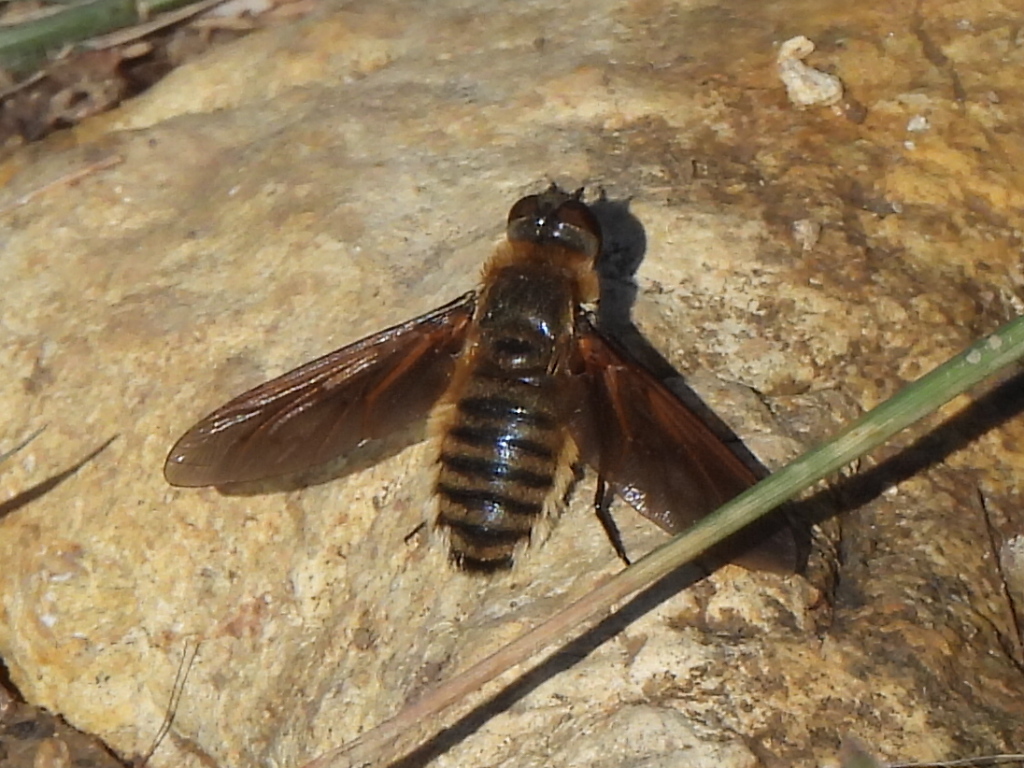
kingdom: Animalia
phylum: Arthropoda
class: Insecta
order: Diptera
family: Bombyliidae
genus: Poecilanthrax
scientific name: Poecilanthrax lucifer
